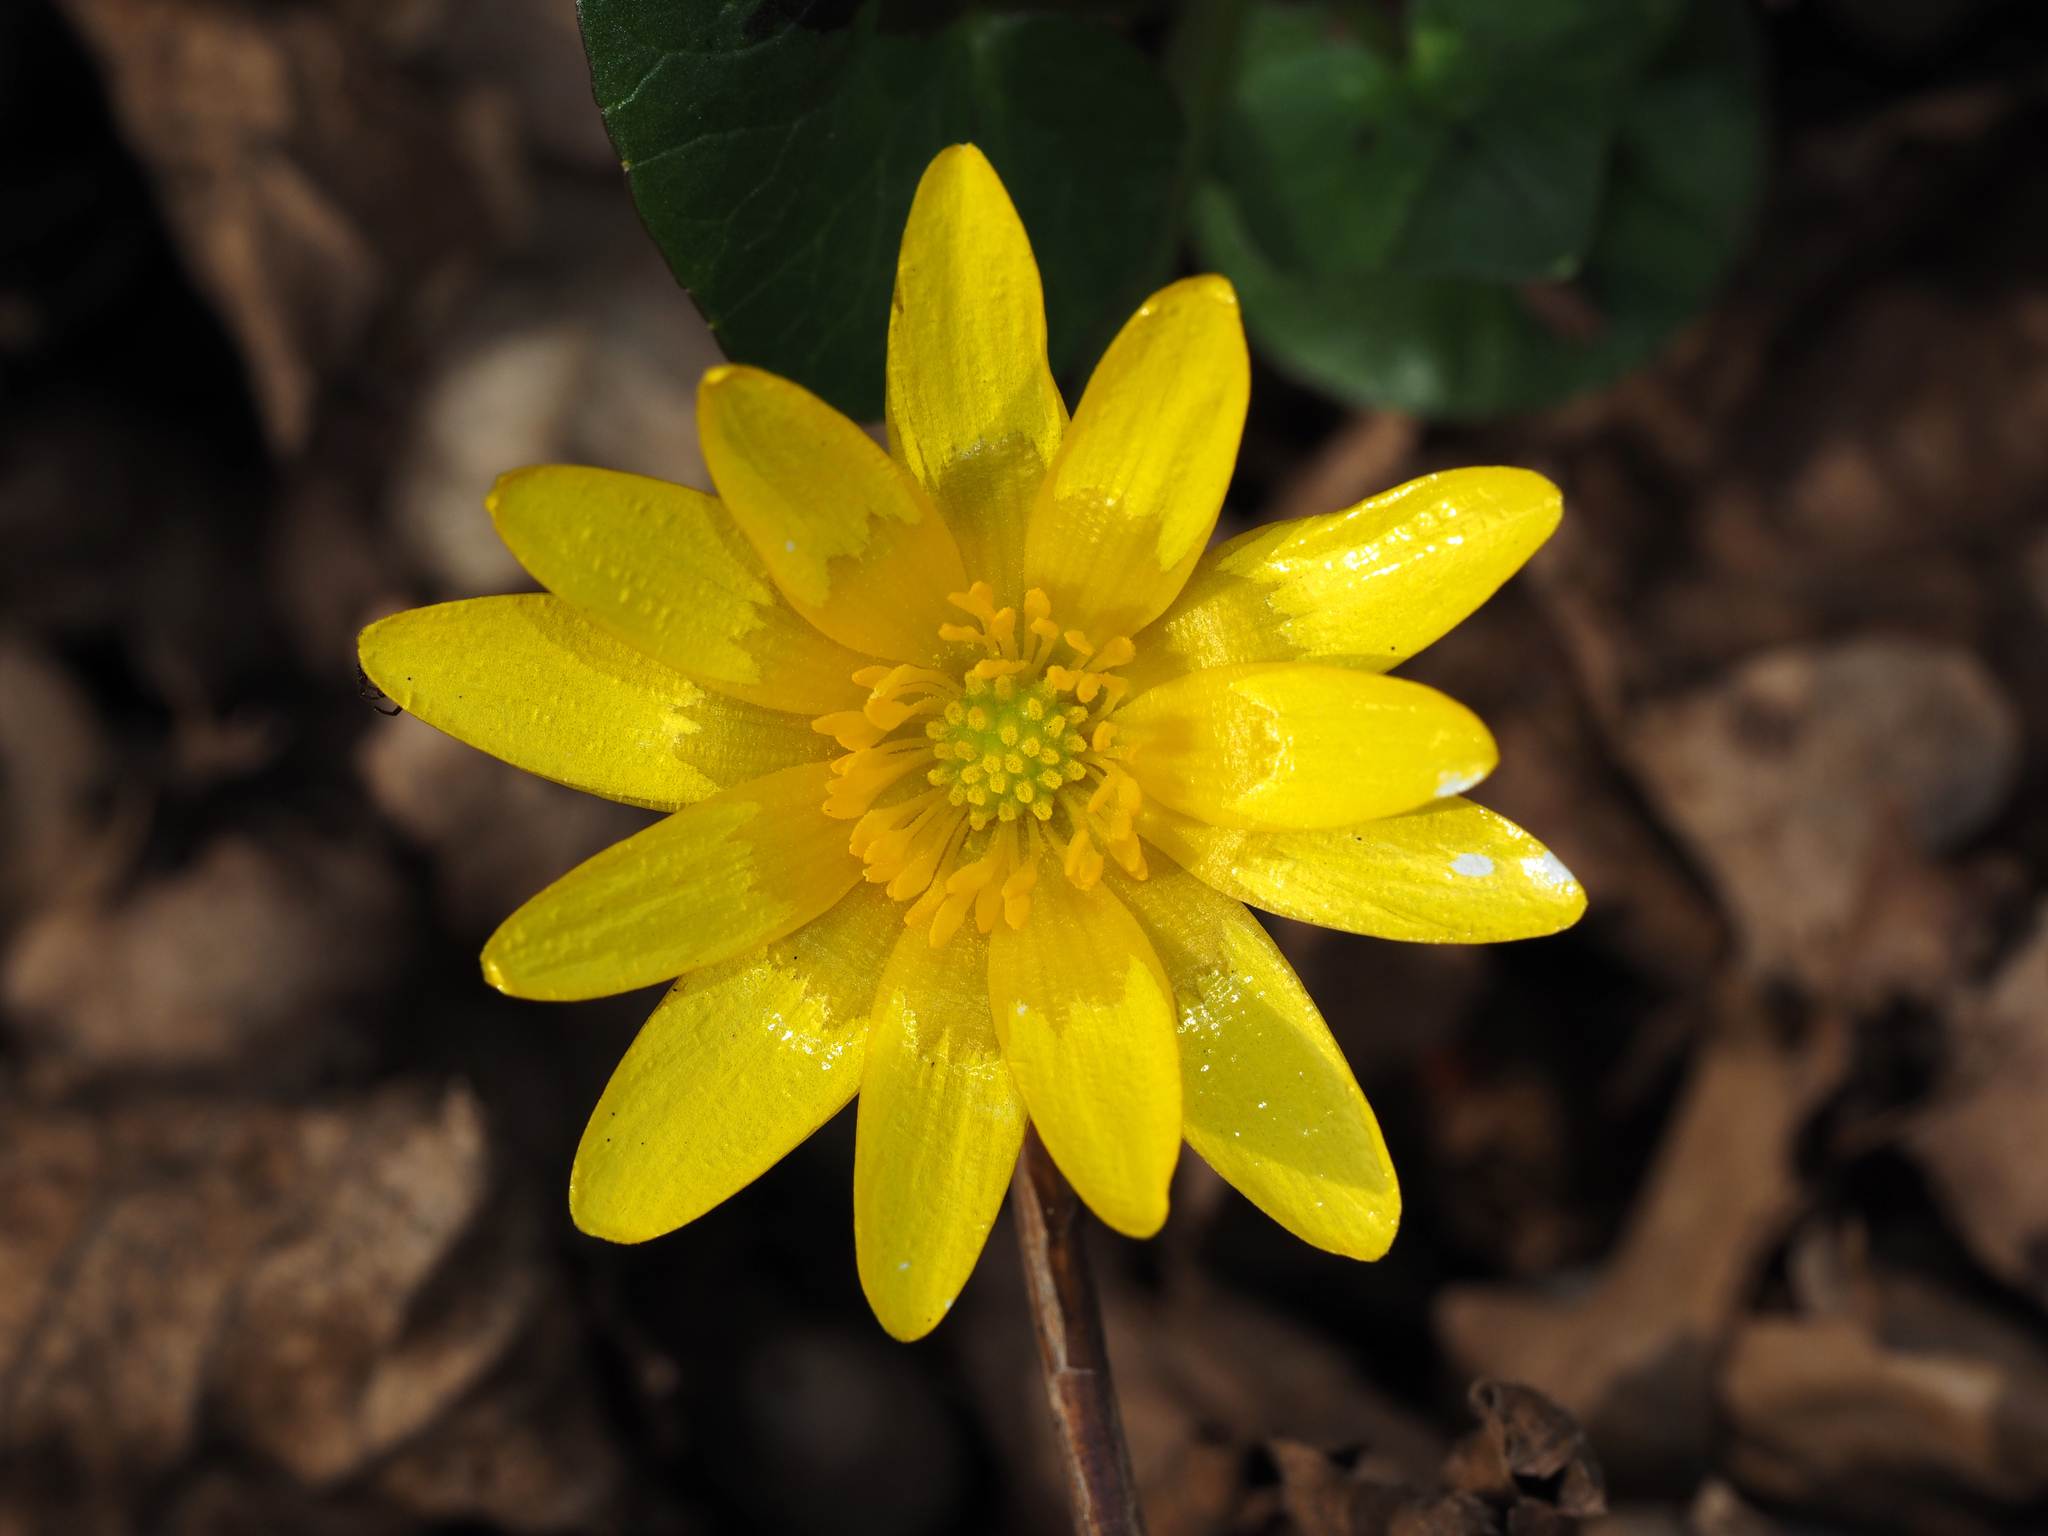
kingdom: Plantae
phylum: Tracheophyta
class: Magnoliopsida
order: Ranunculales
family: Ranunculaceae
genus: Ficaria
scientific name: Ficaria verna
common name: Lesser celandine
